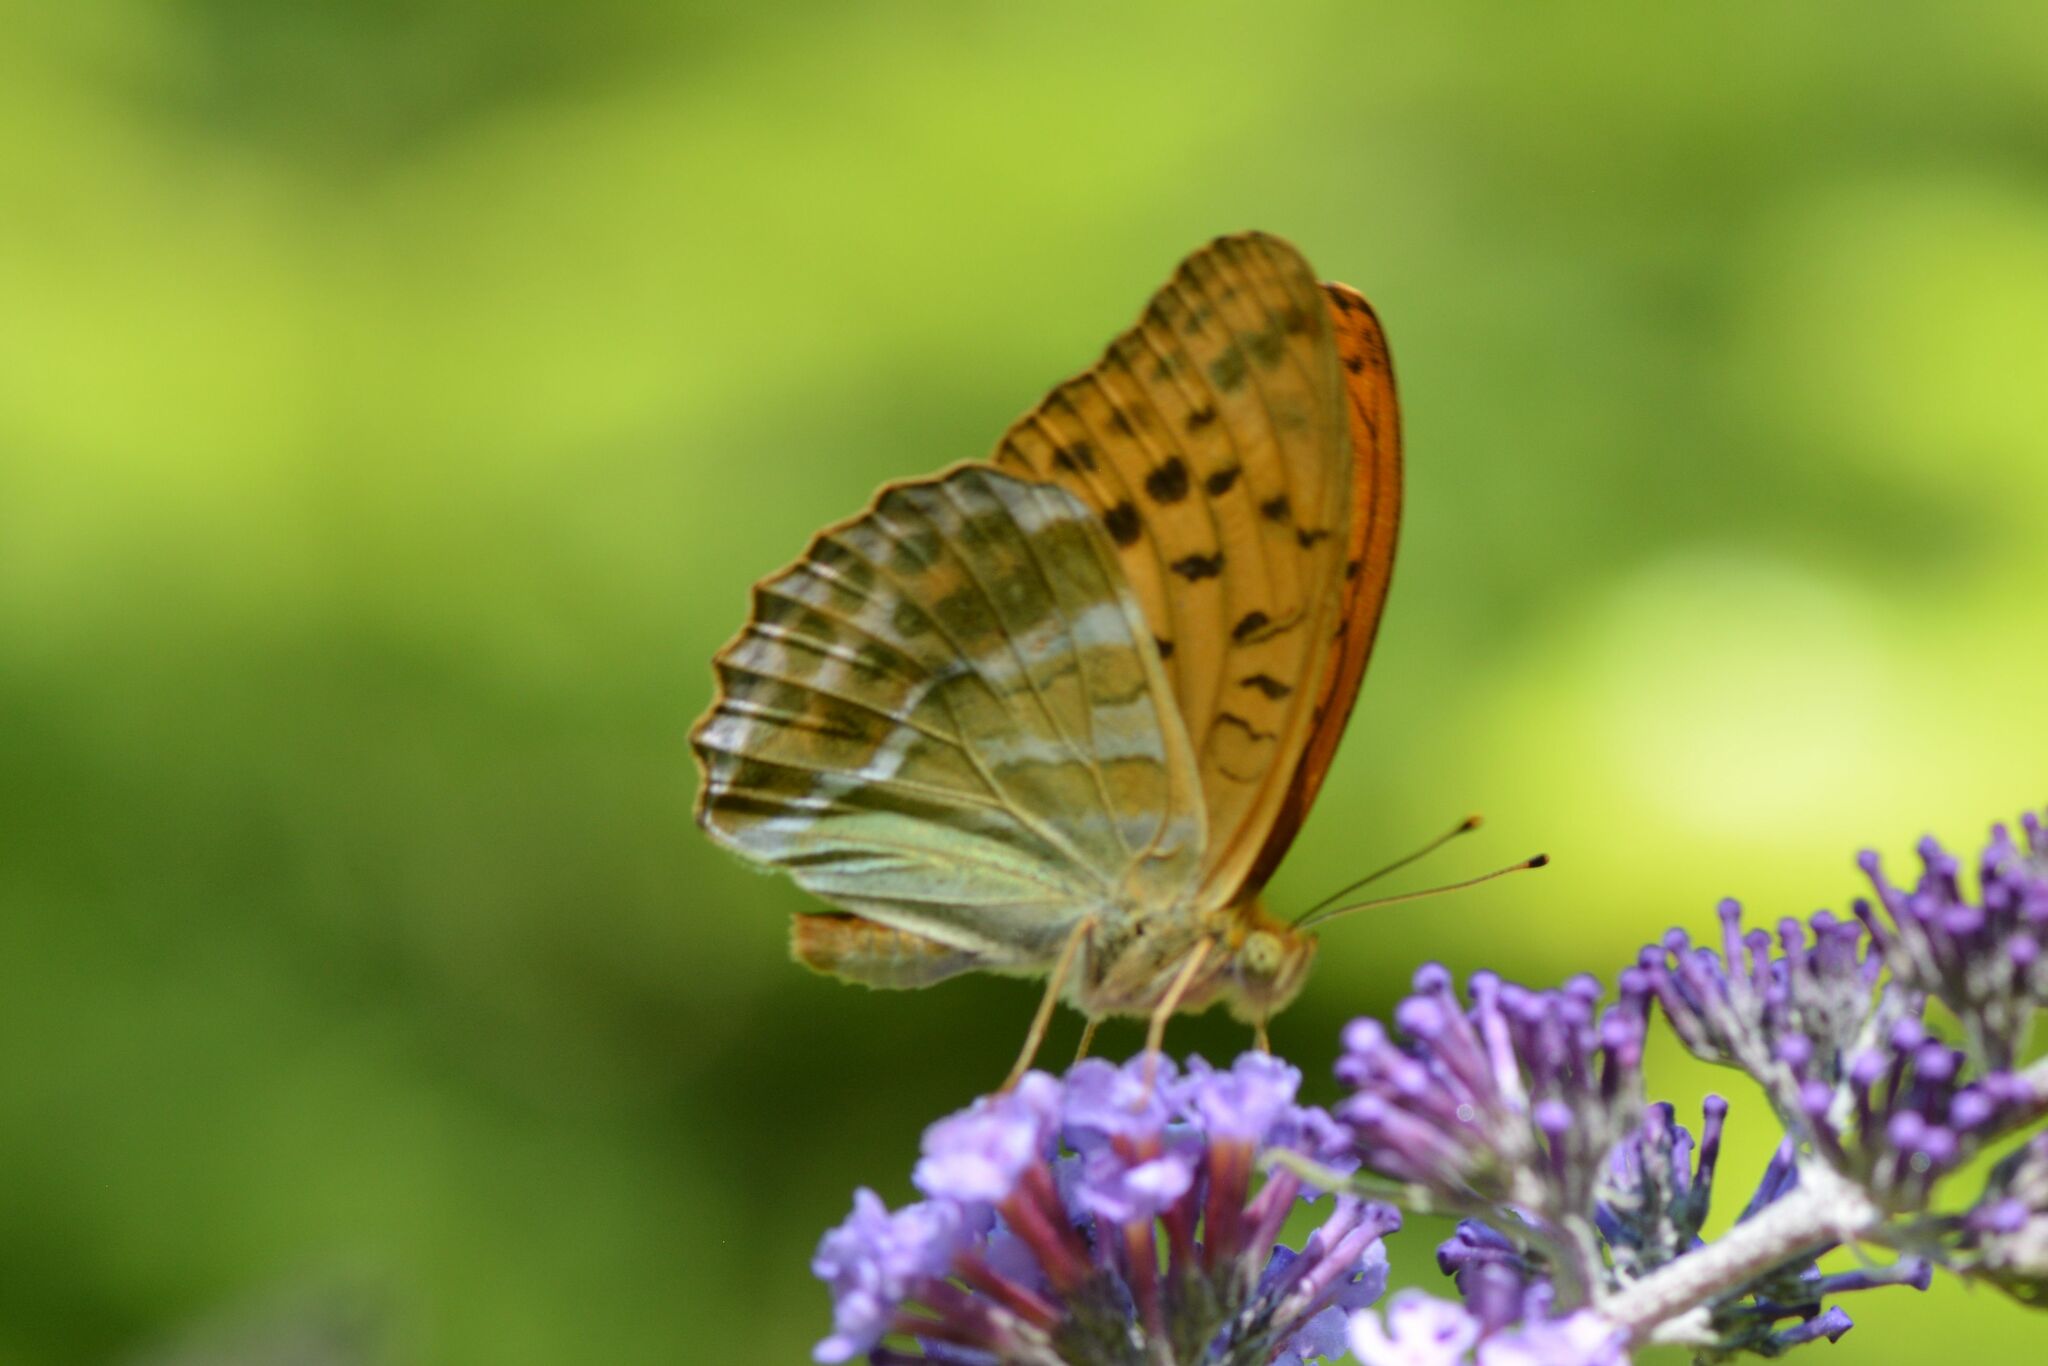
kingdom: Animalia
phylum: Arthropoda
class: Insecta
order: Lepidoptera
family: Nymphalidae
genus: Argynnis
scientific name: Argynnis paphia
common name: Silver-washed fritillary
